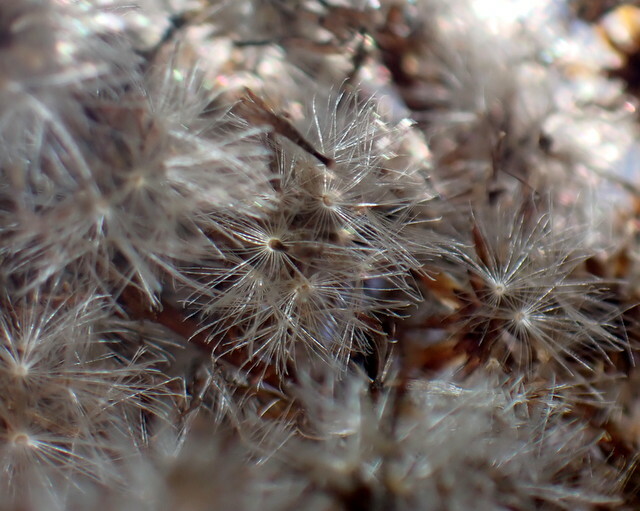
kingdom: Plantae
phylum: Tracheophyta
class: Magnoliopsida
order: Asterales
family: Asteraceae
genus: Solidago
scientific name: Solidago mexicana
